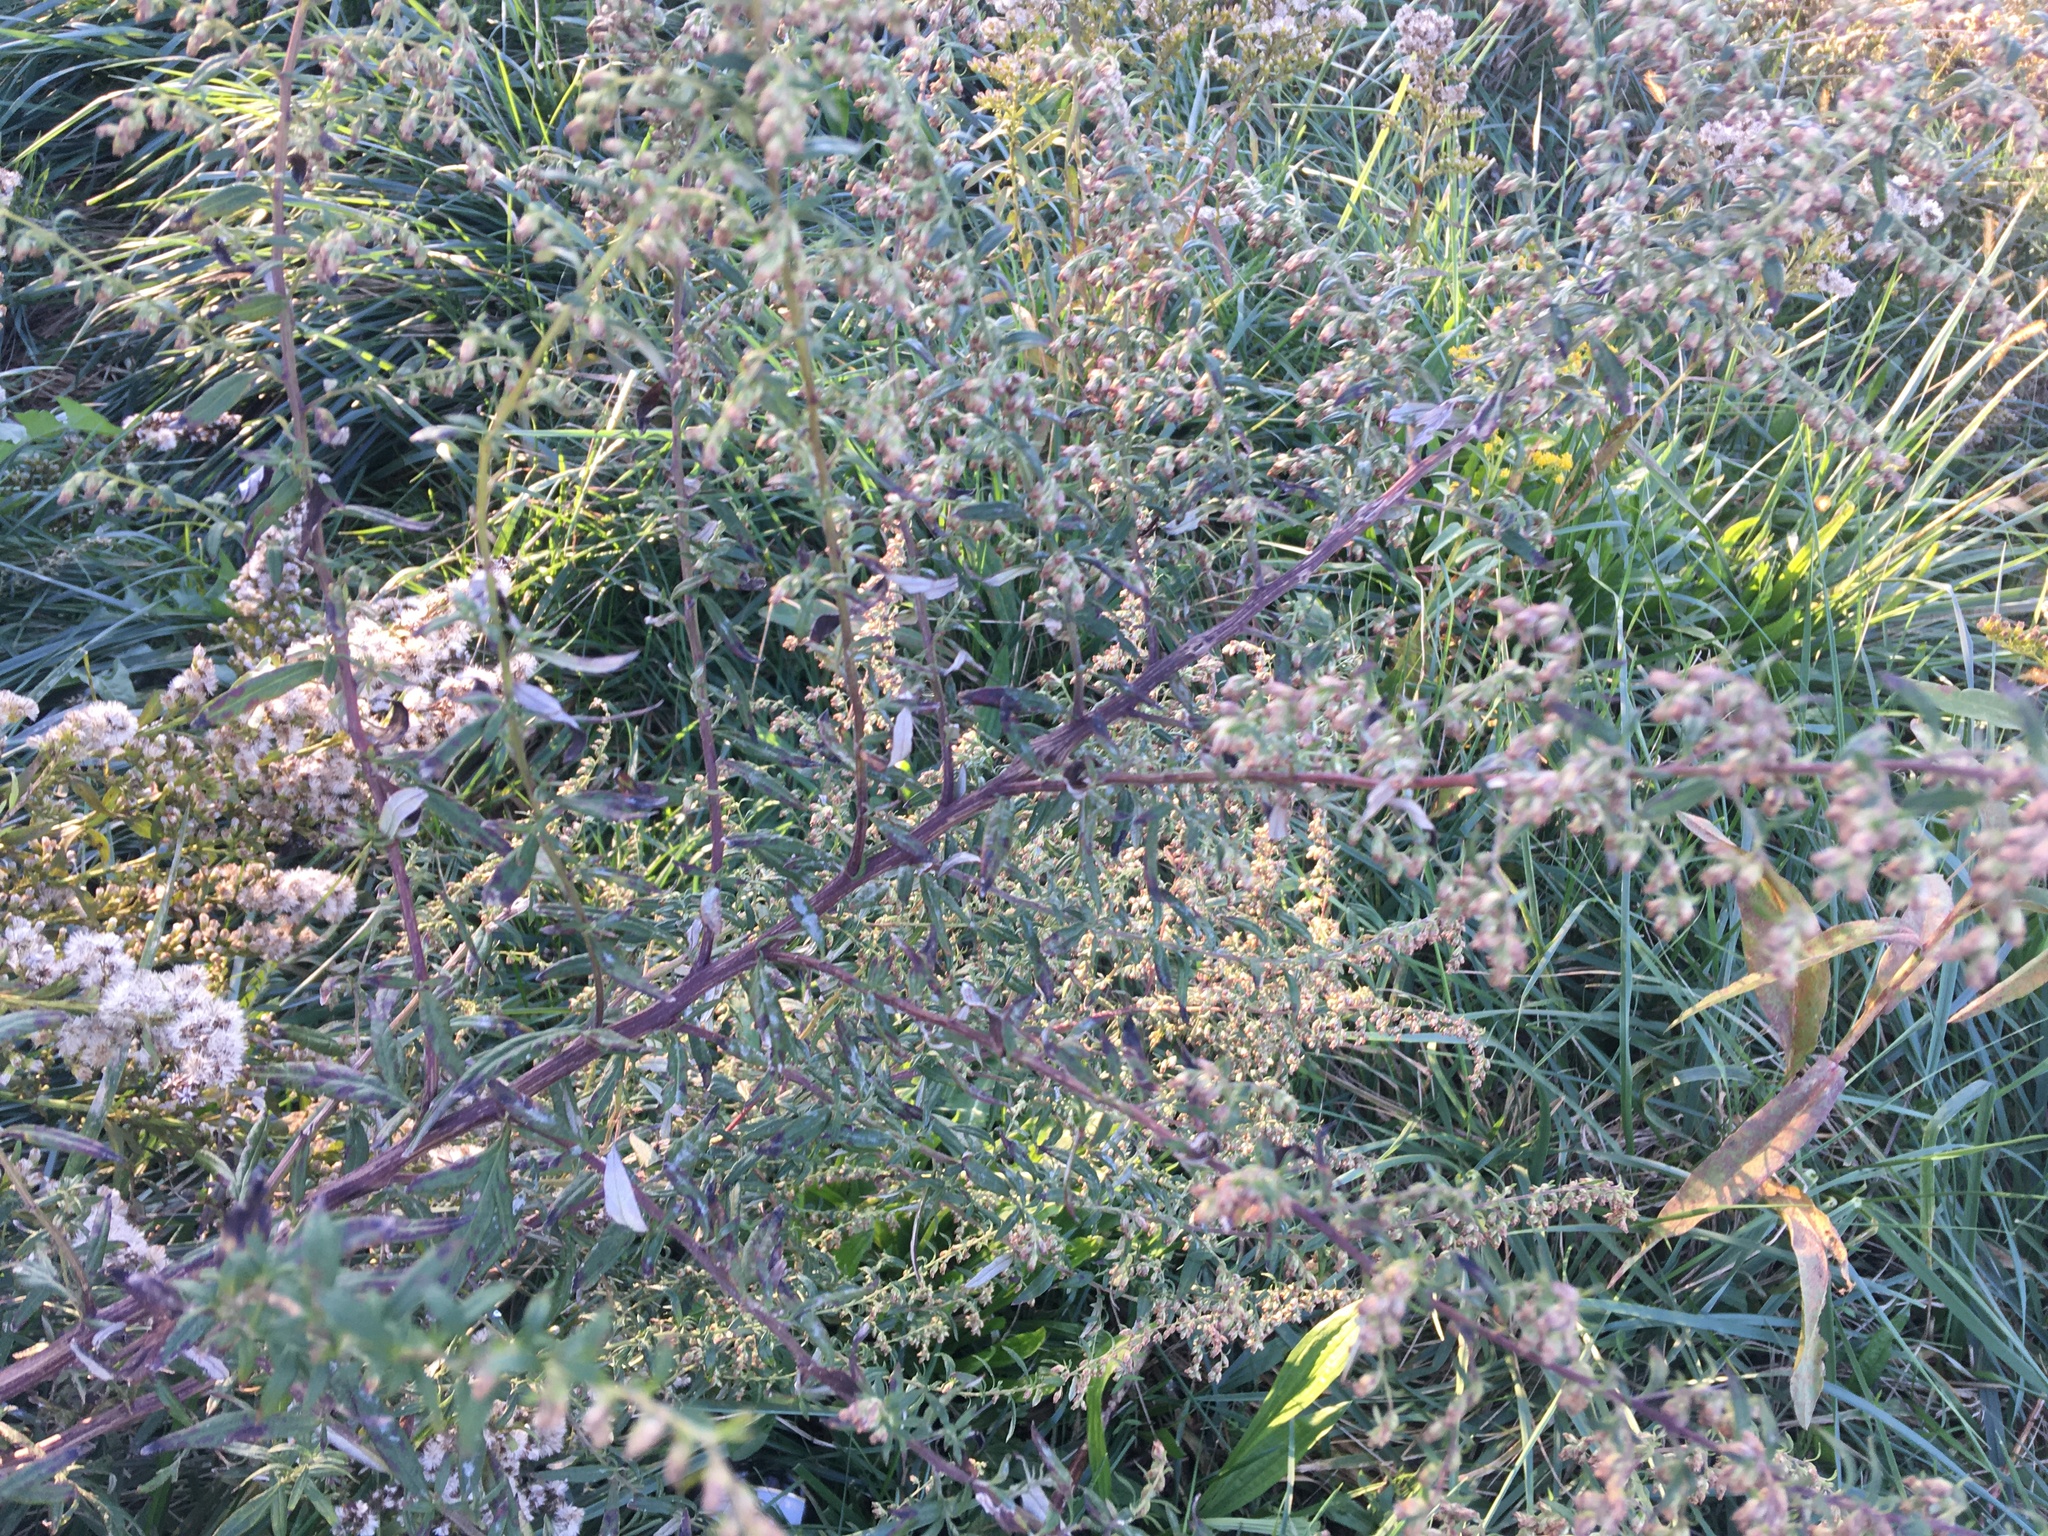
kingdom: Plantae
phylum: Tracheophyta
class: Magnoliopsida
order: Asterales
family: Asteraceae
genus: Artemisia
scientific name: Artemisia vulgaris
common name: Mugwort
